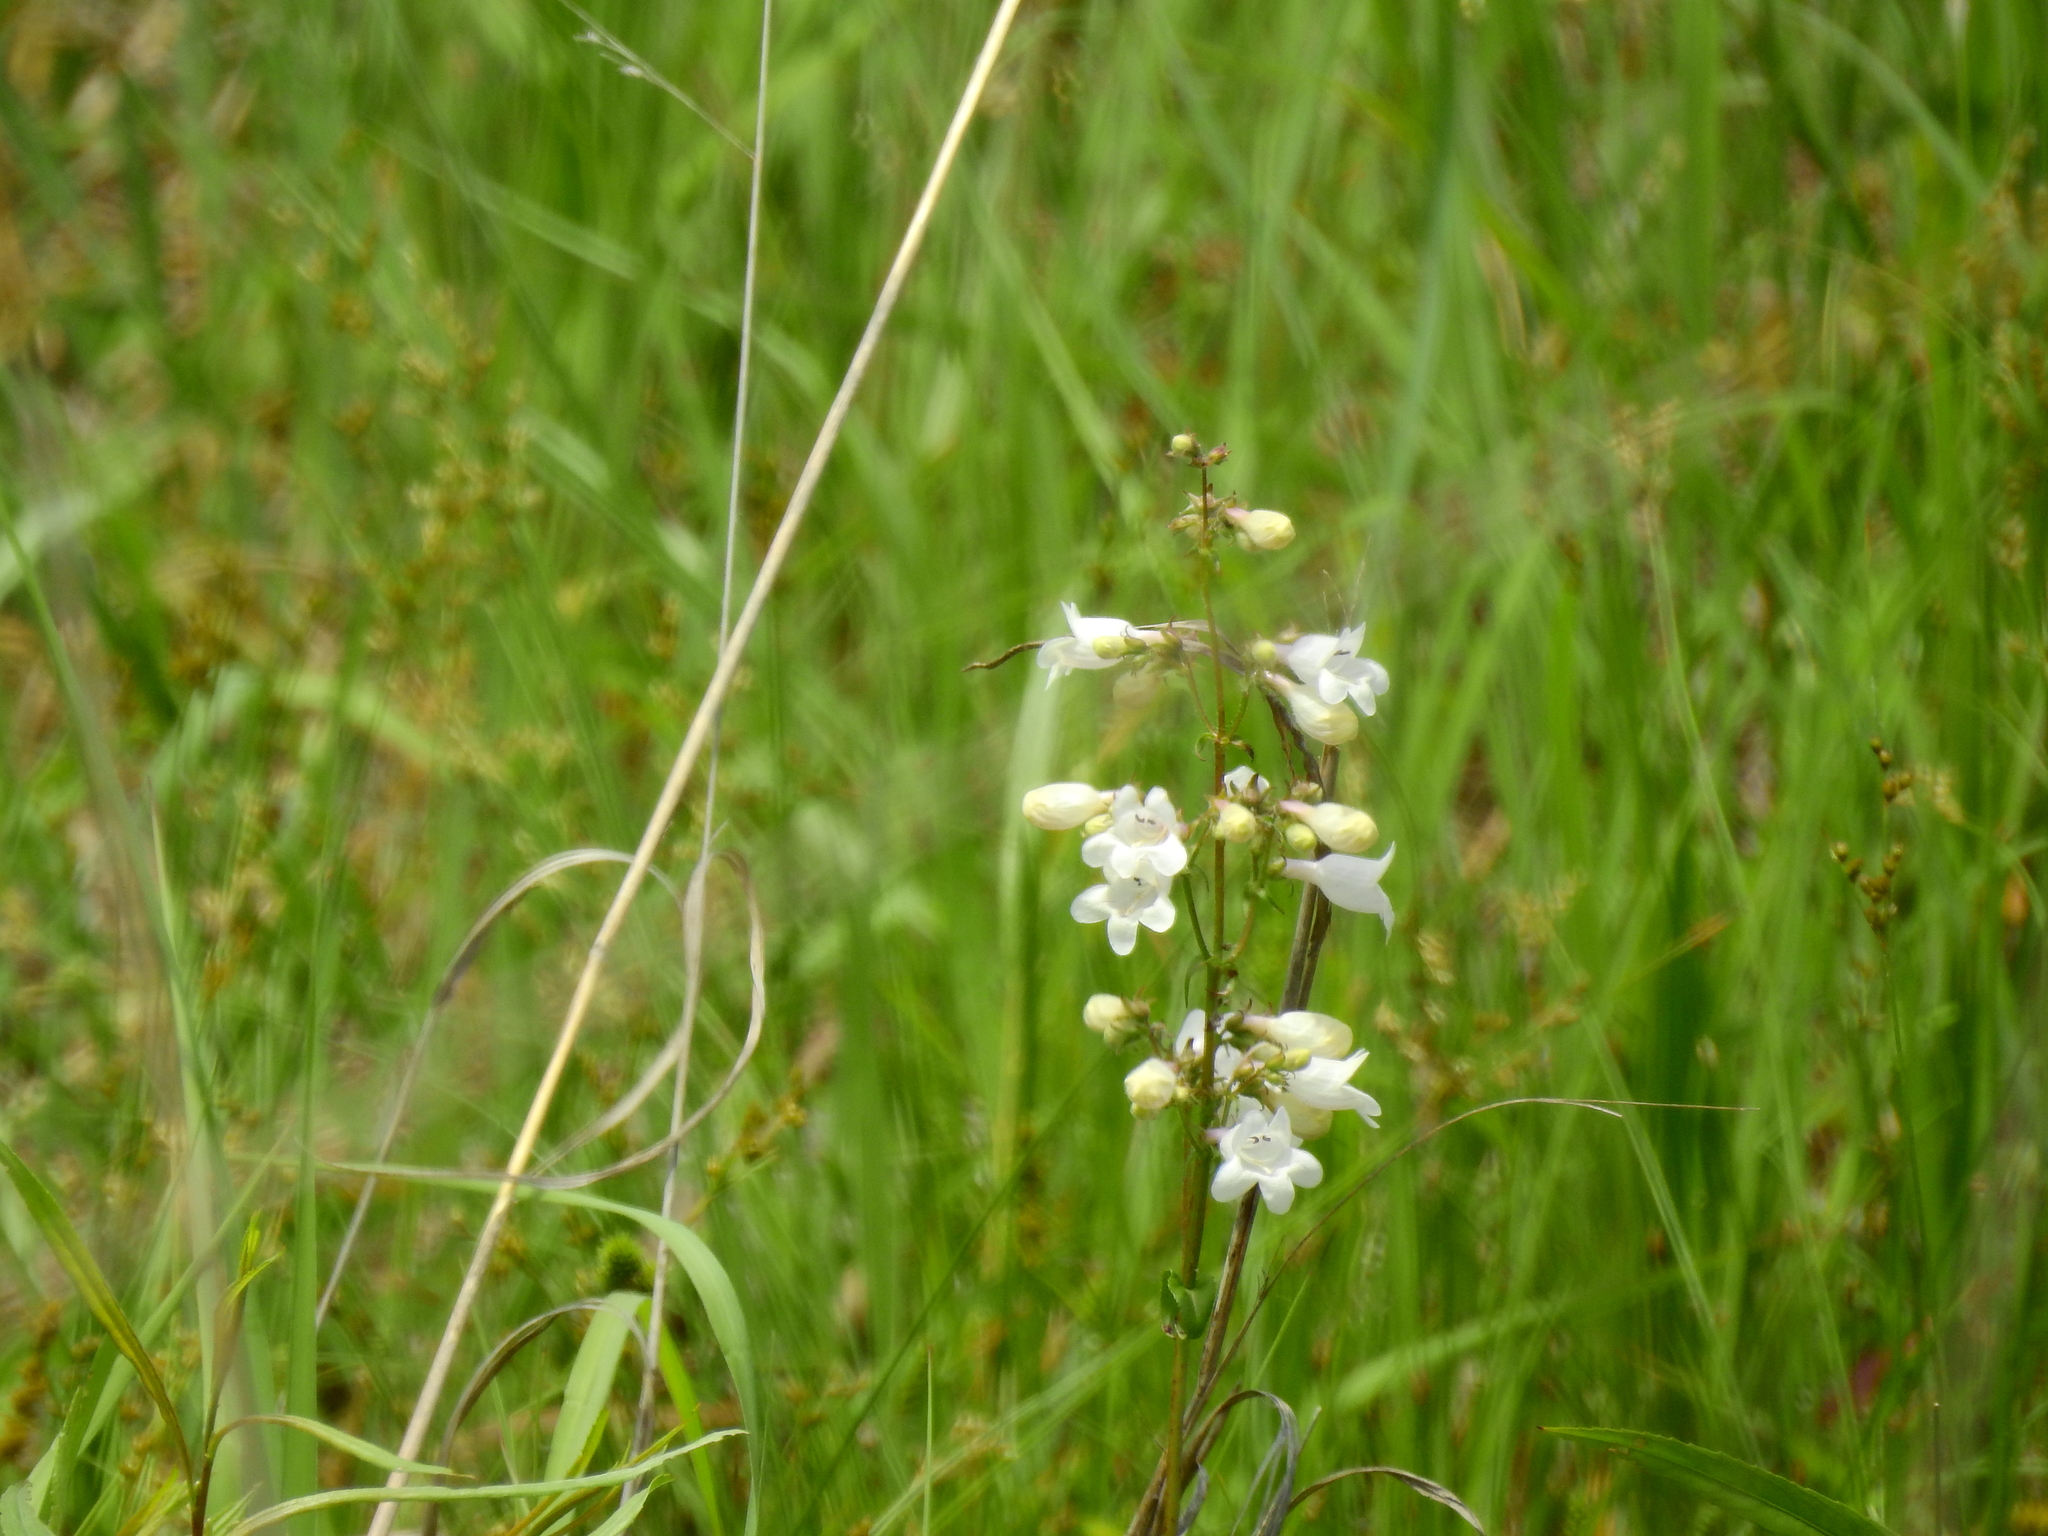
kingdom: Plantae
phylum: Tracheophyta
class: Magnoliopsida
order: Lamiales
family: Plantaginaceae
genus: Penstemon
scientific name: Penstemon digitalis
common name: Foxglove beardtongue
